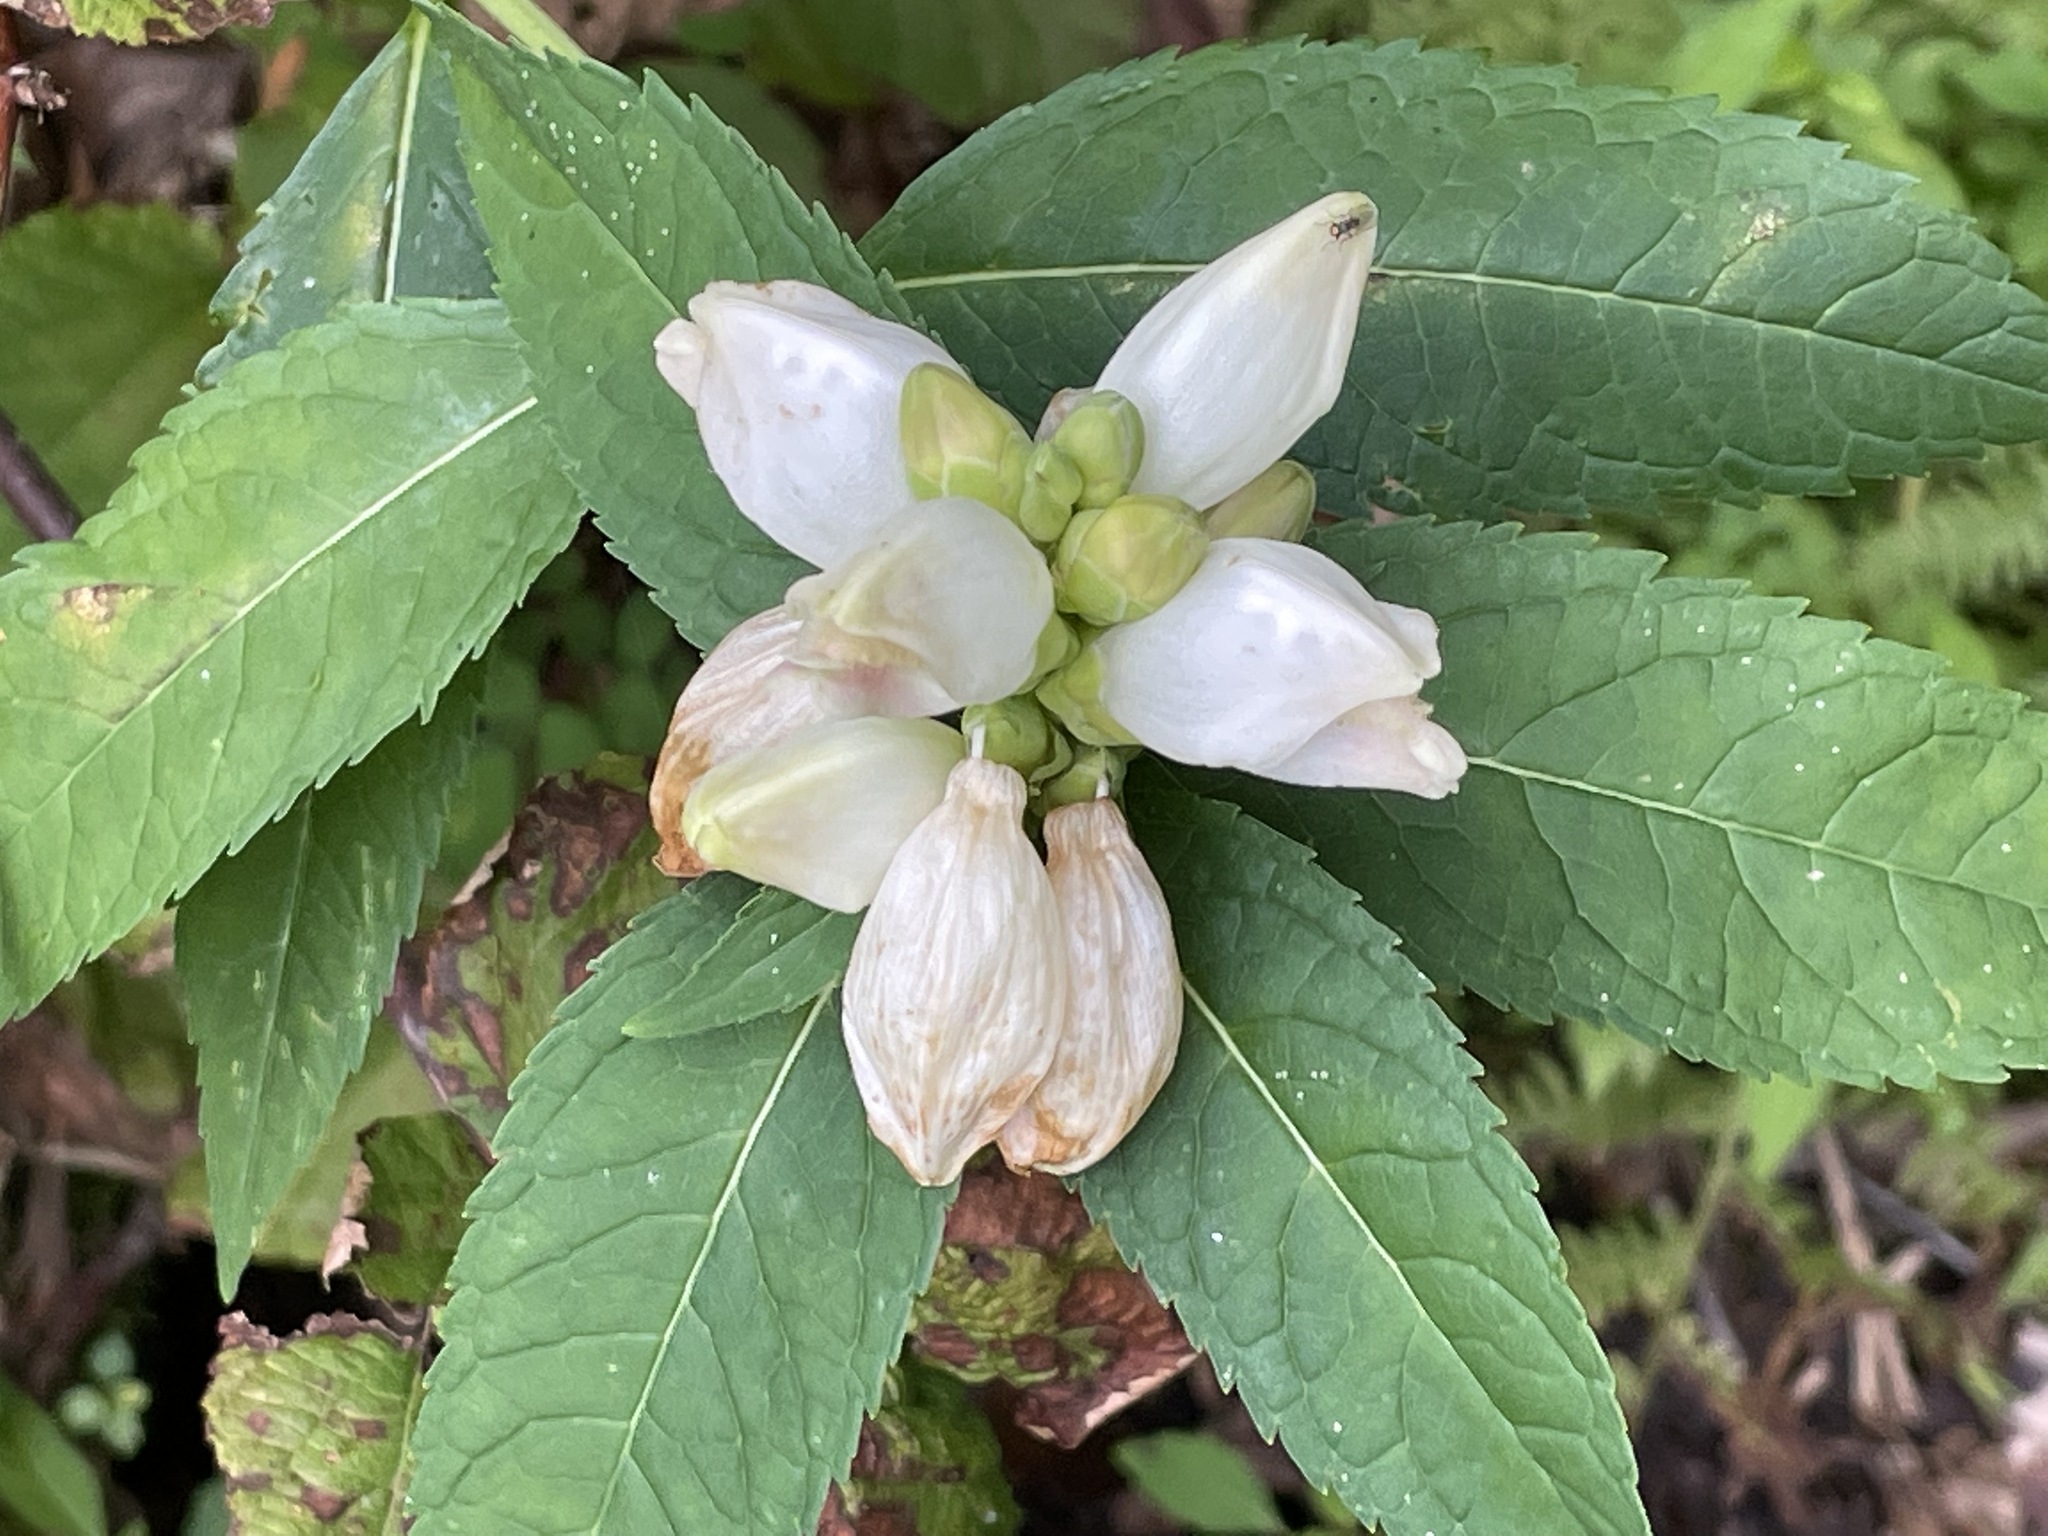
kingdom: Plantae
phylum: Tracheophyta
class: Magnoliopsida
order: Lamiales
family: Plantaginaceae
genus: Chelone
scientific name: Chelone glabra
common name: Snakehead
